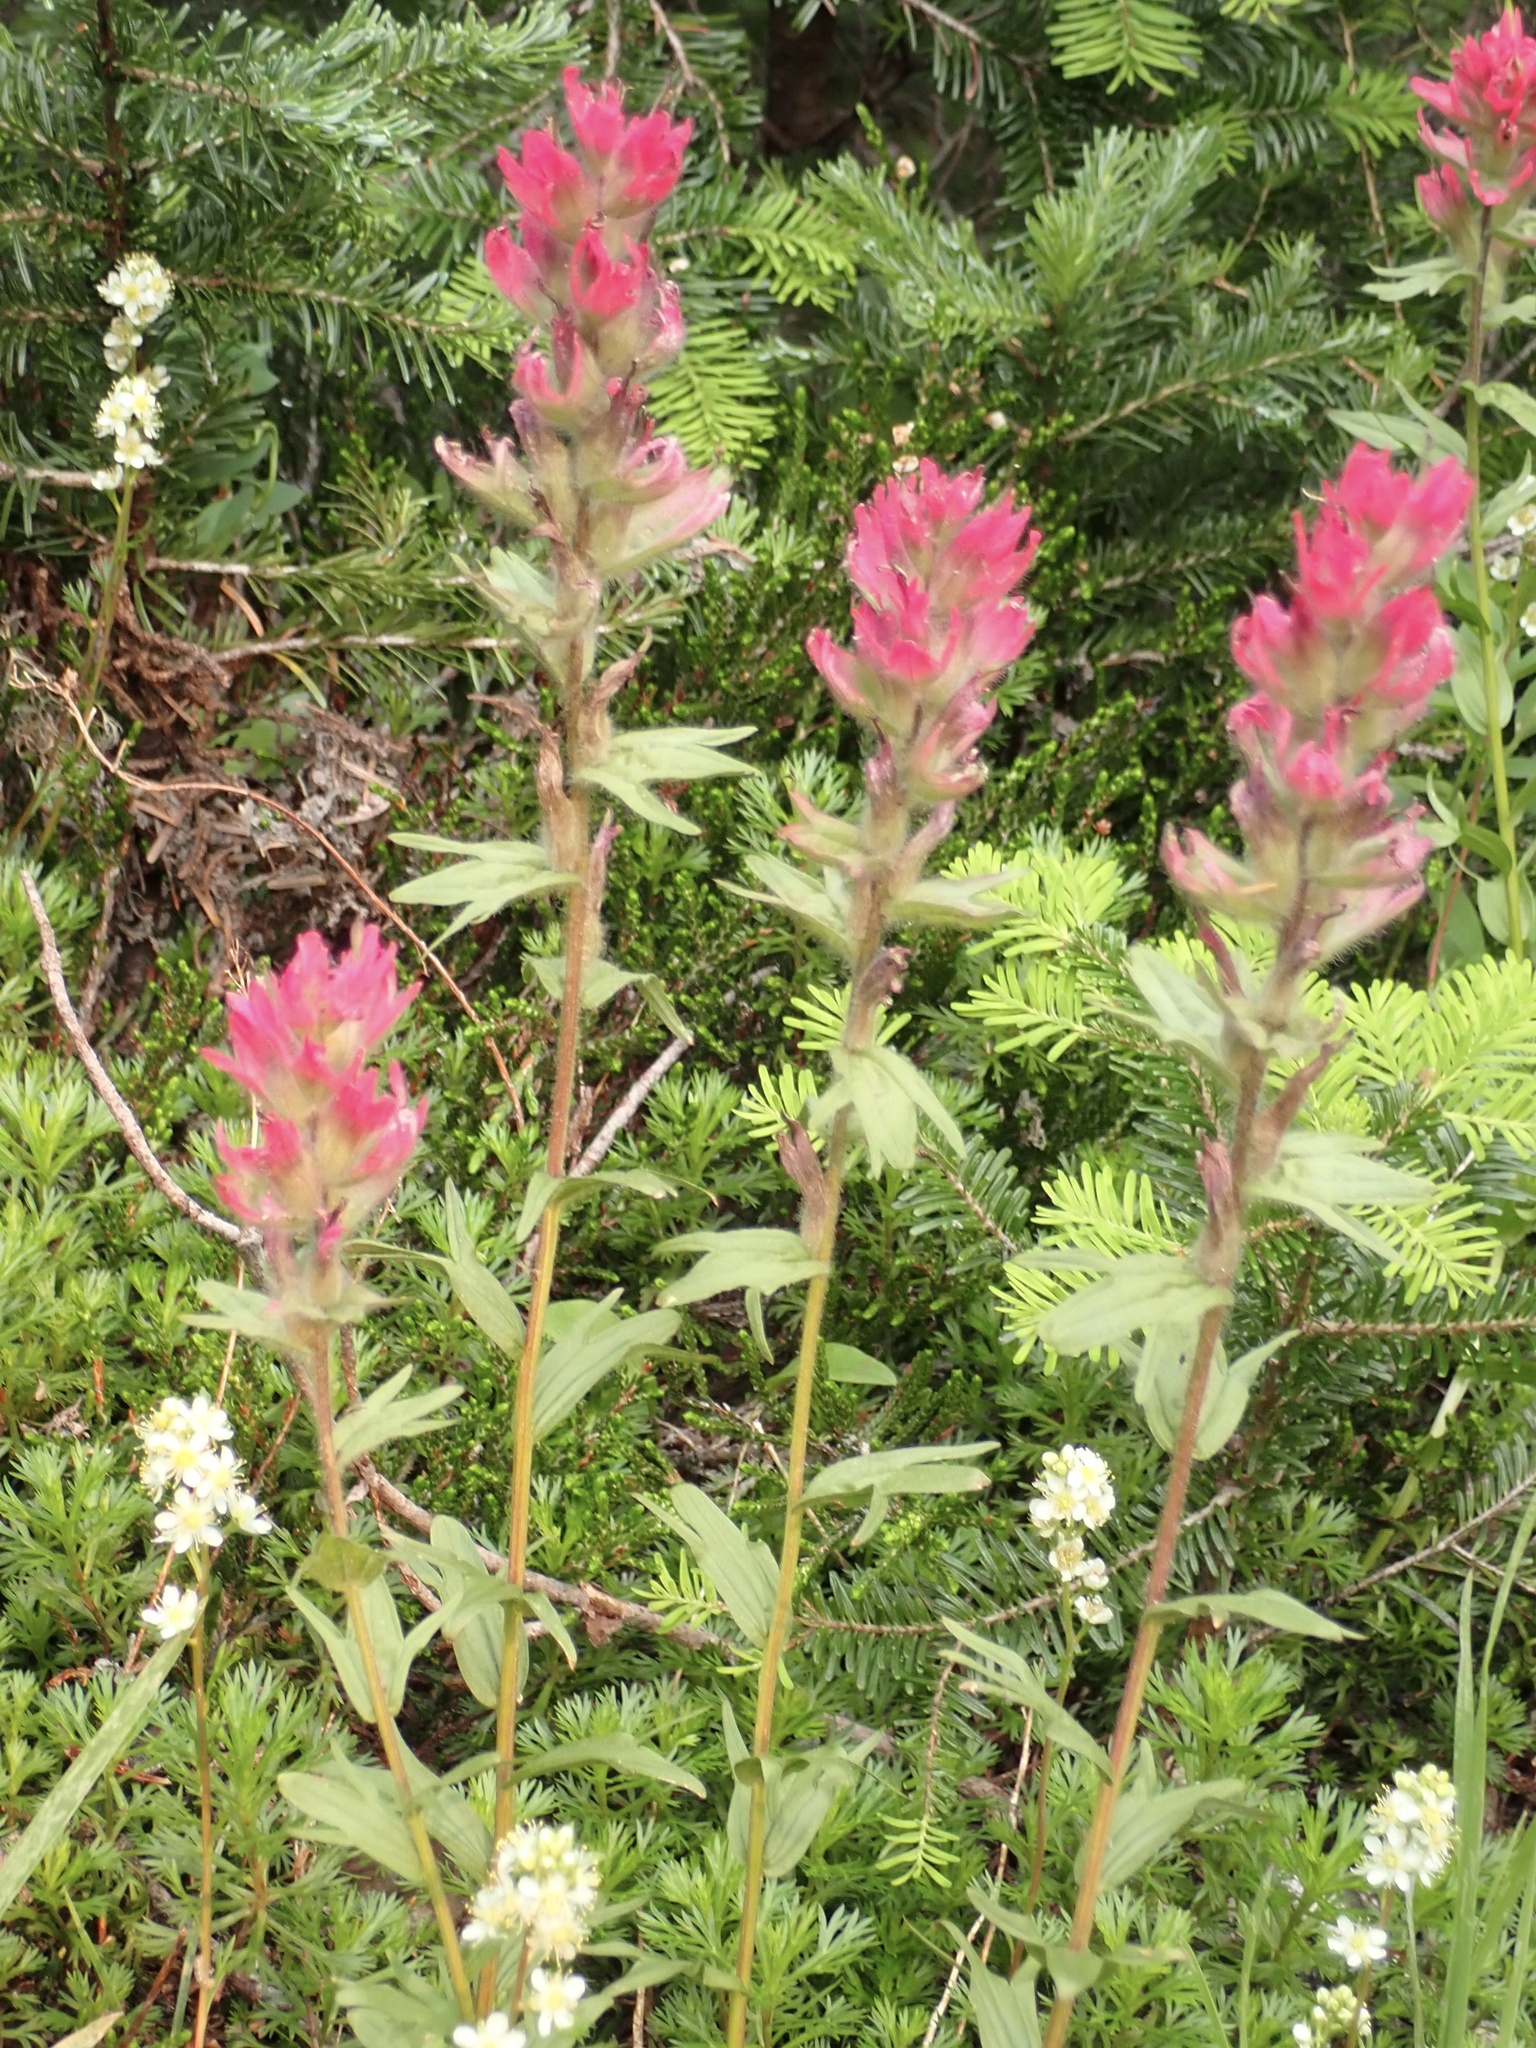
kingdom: Plantae
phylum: Tracheophyta
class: Magnoliopsida
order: Lamiales
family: Orobanchaceae
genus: Castilleja
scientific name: Castilleja parviflora
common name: Mountain paintbrush
